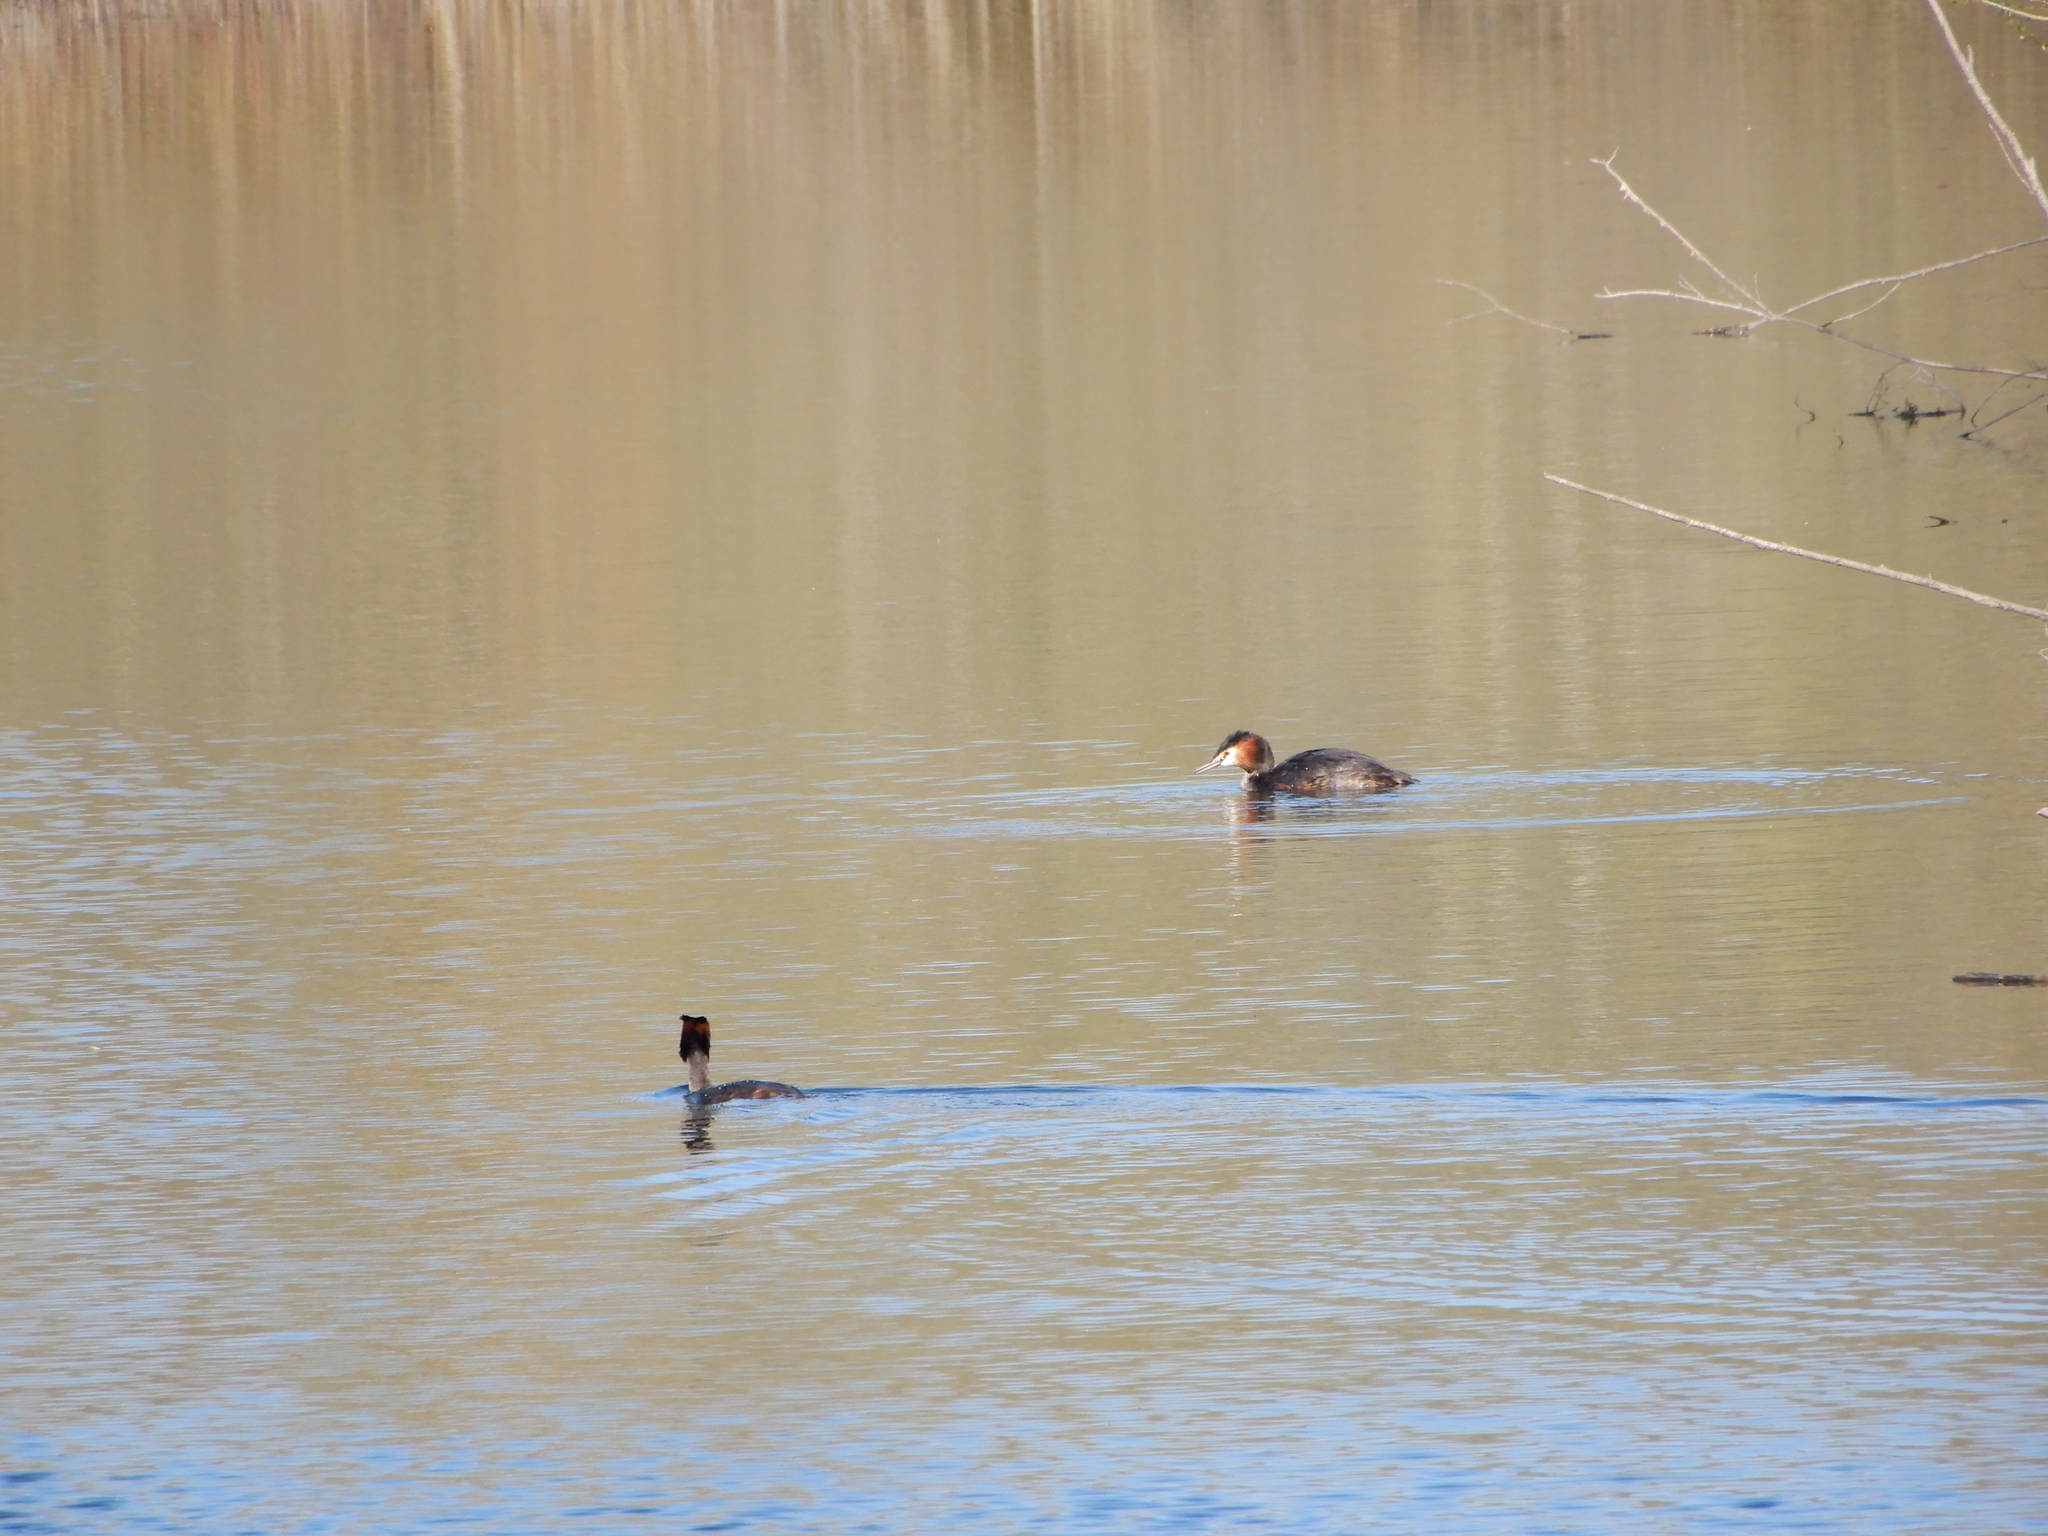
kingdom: Animalia
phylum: Chordata
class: Aves
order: Podicipediformes
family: Podicipedidae
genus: Podiceps
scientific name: Podiceps cristatus
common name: Great crested grebe
